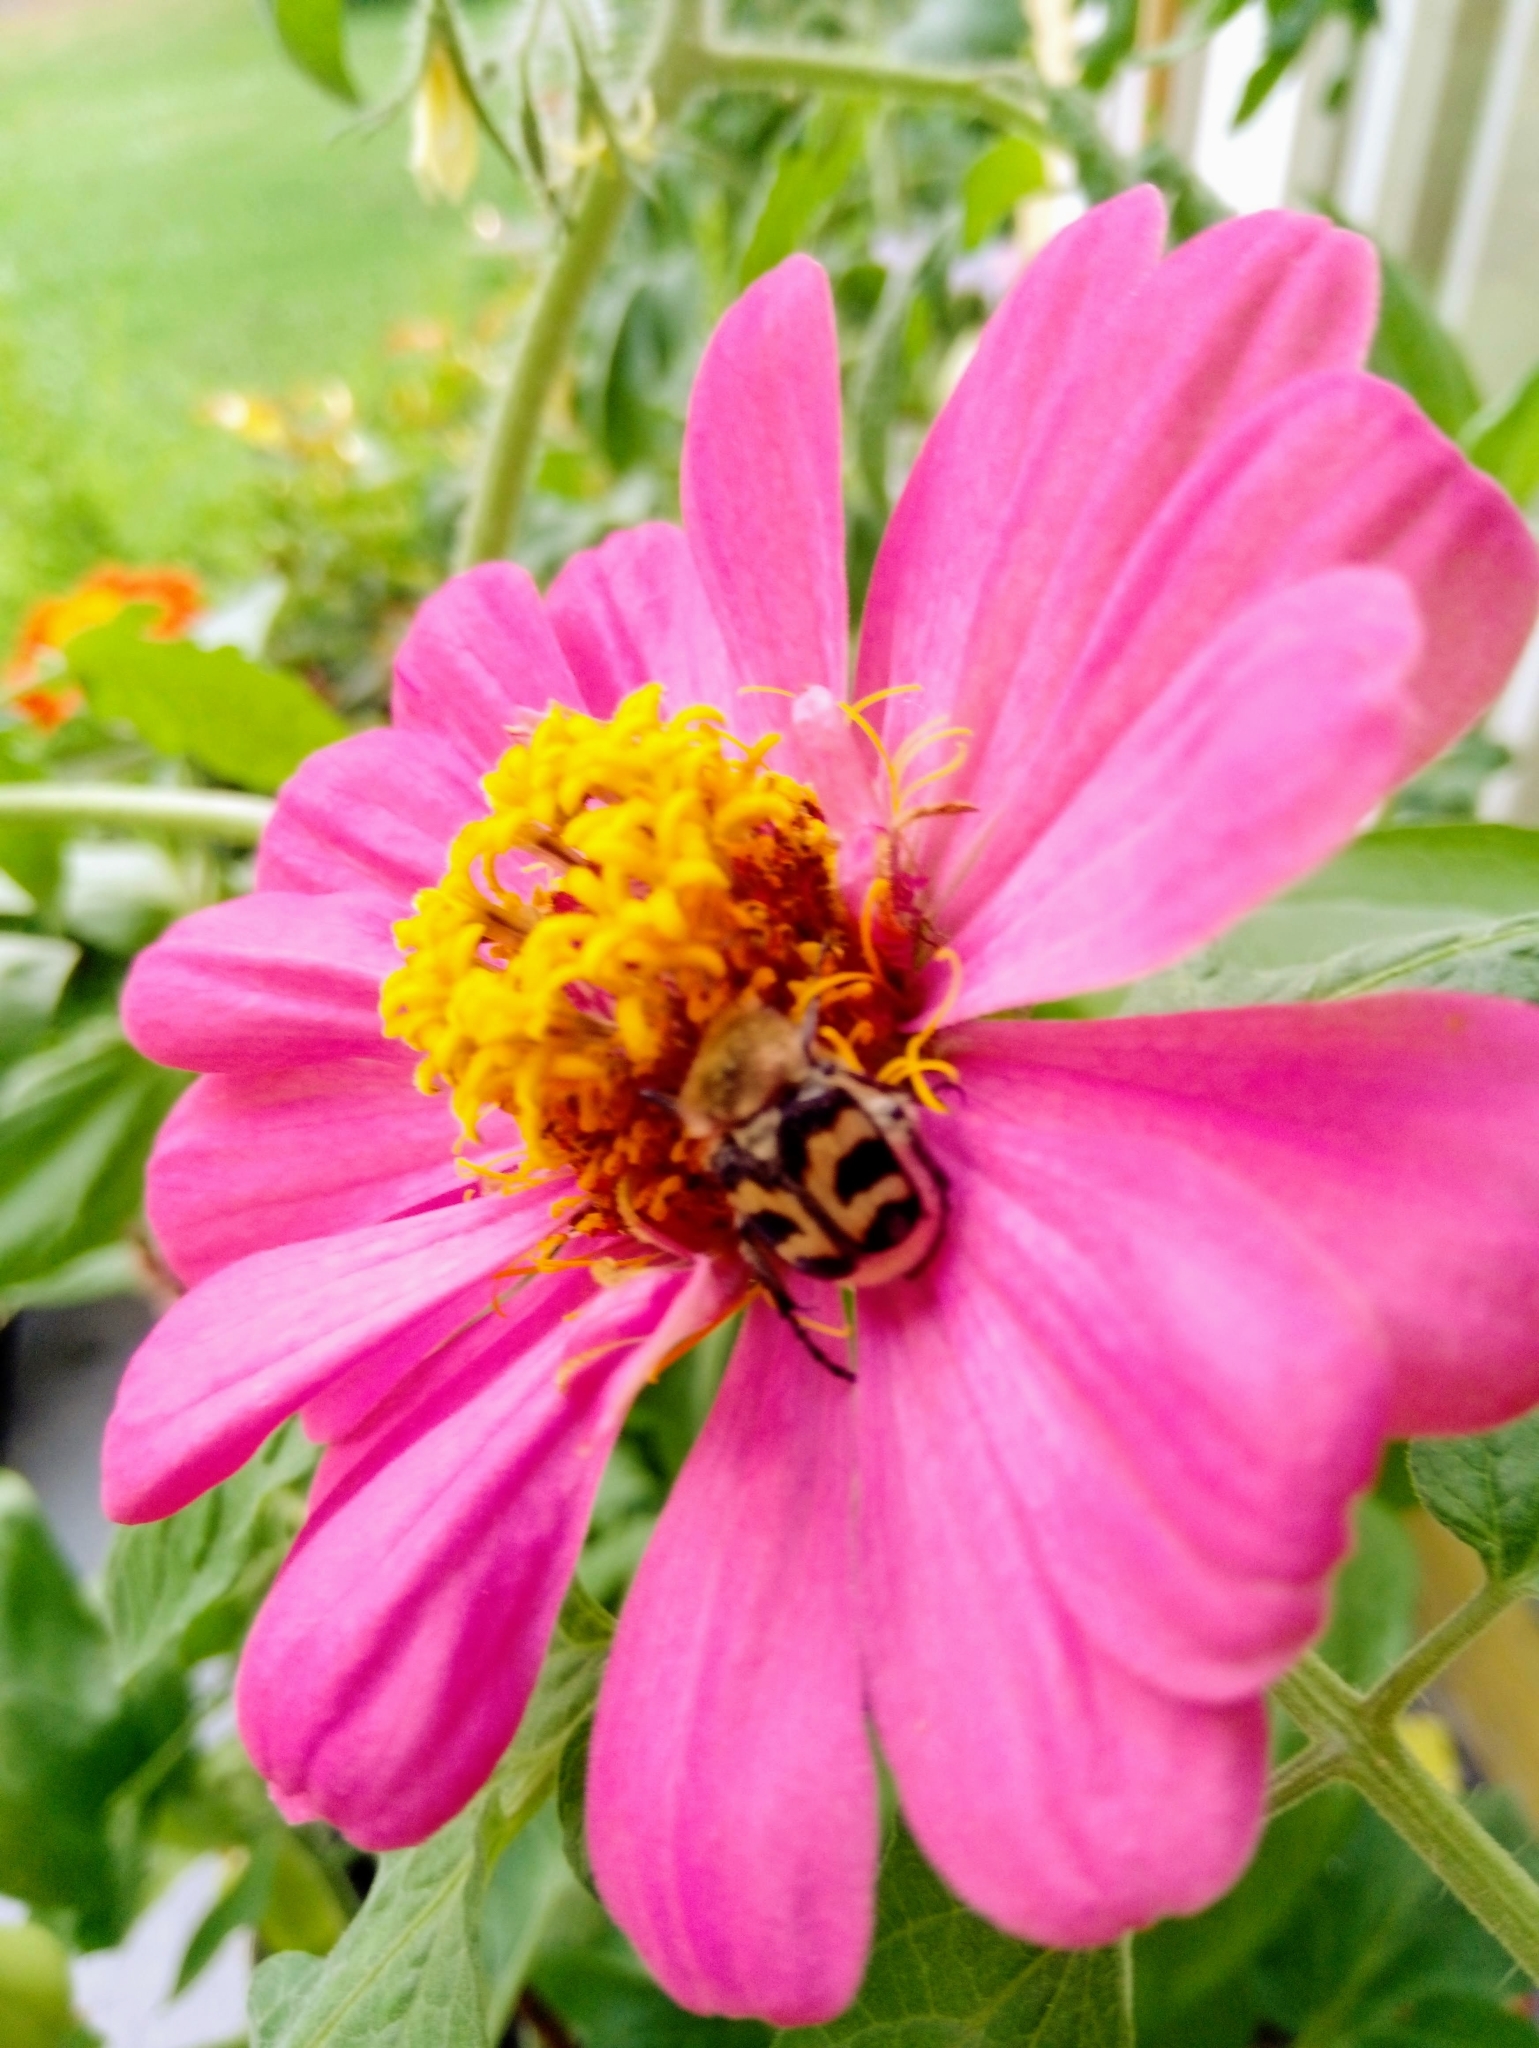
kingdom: Animalia
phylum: Arthropoda
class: Insecta
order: Coleoptera
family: Scarabaeidae
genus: Trichius
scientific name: Trichius fasciatus
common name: Bee beetle
